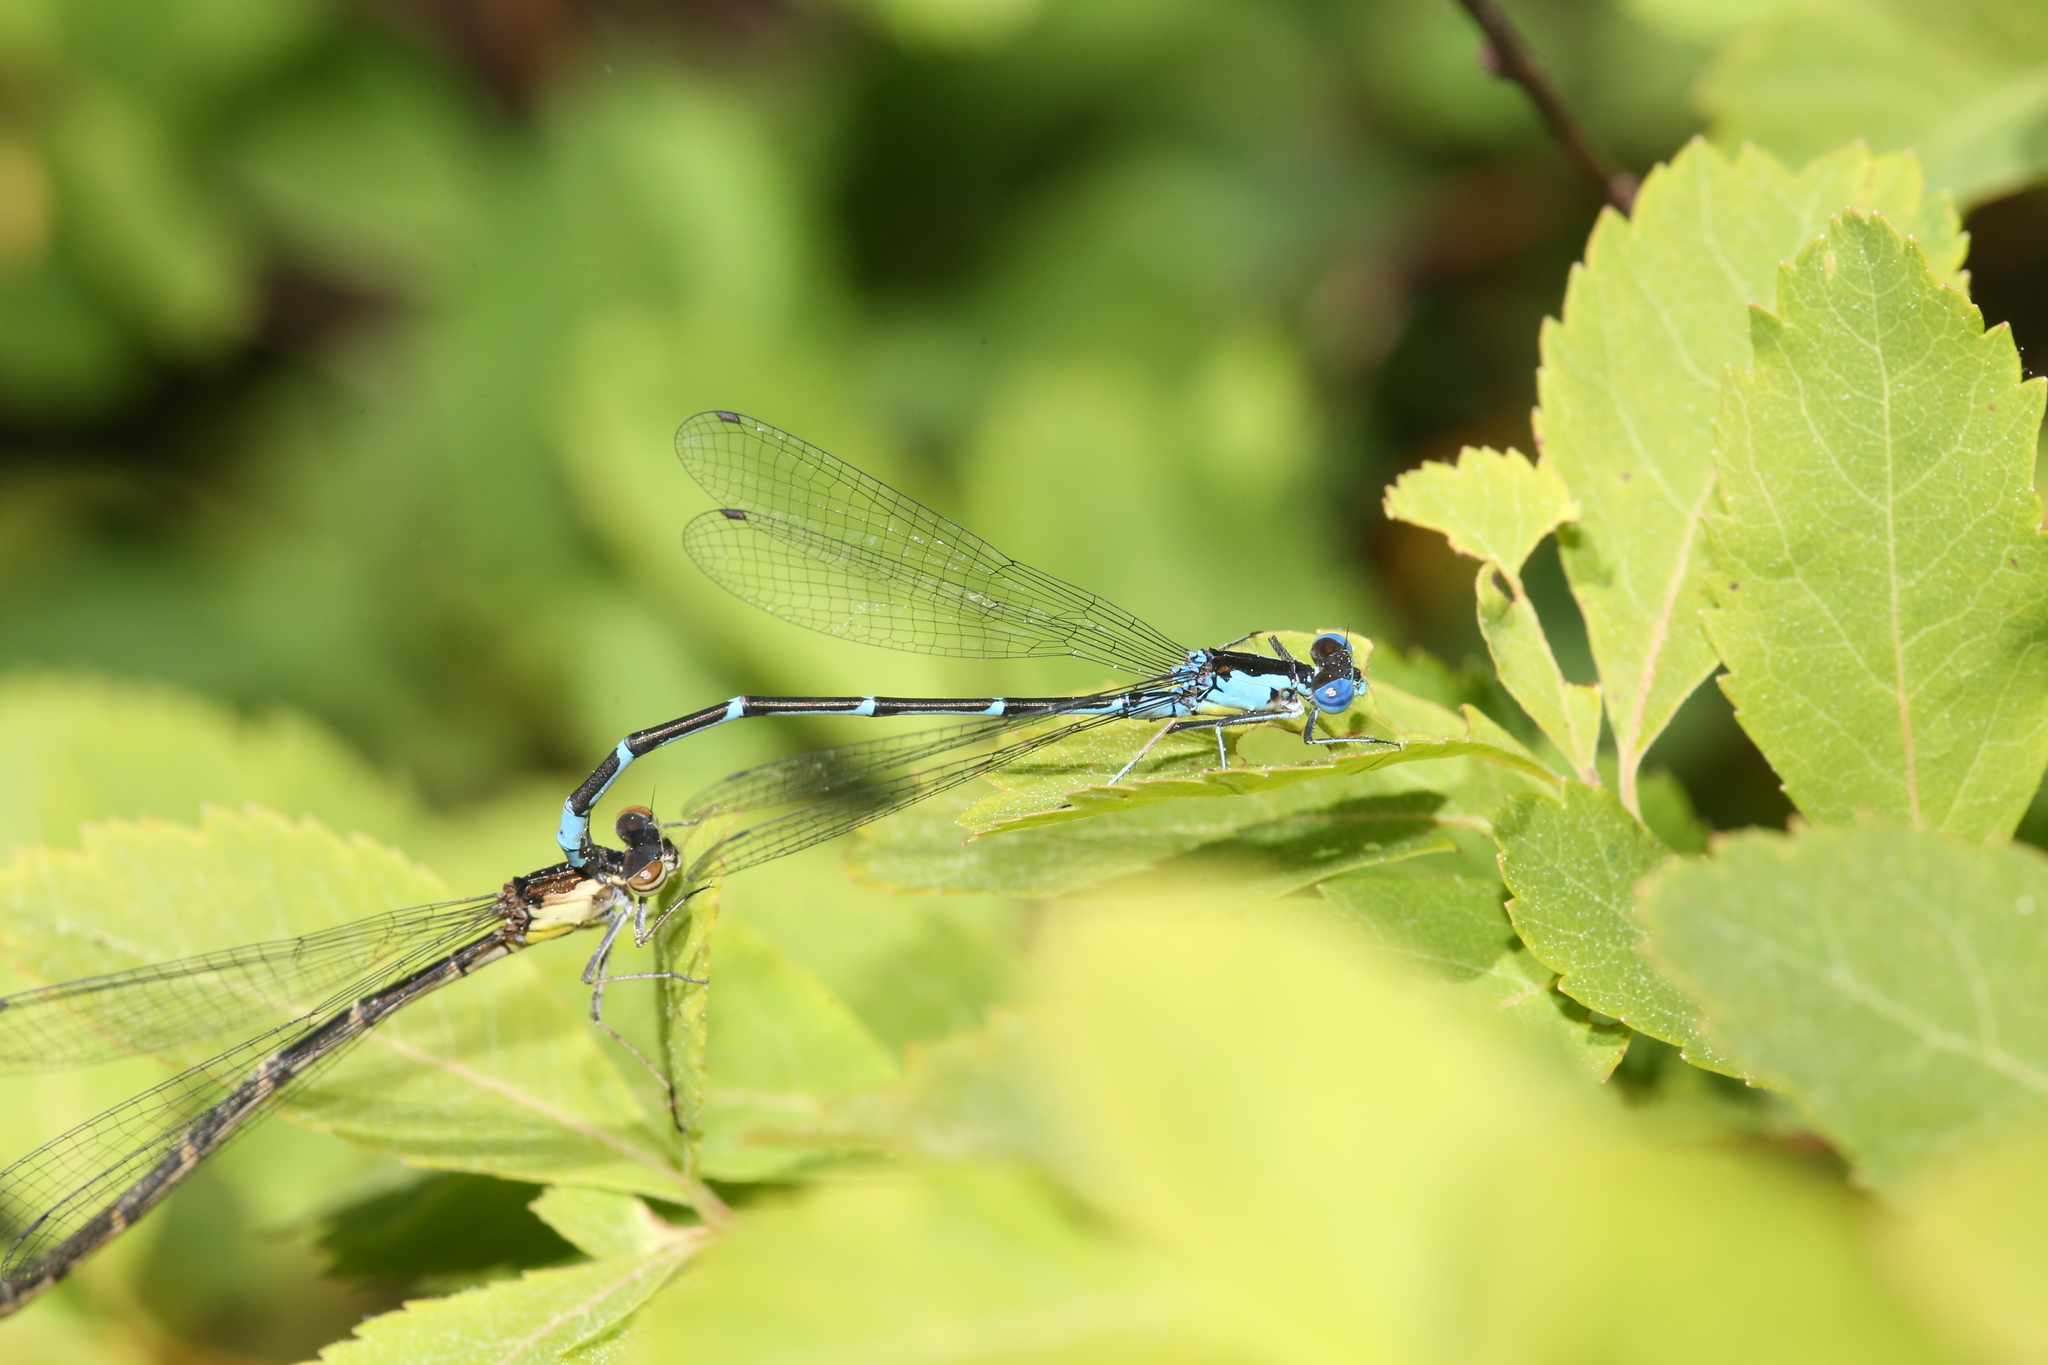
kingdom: Animalia
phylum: Arthropoda
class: Insecta
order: Odonata
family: Coenagrionidae
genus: Chromagrion
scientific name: Chromagrion conditum
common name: Aurora damsel
